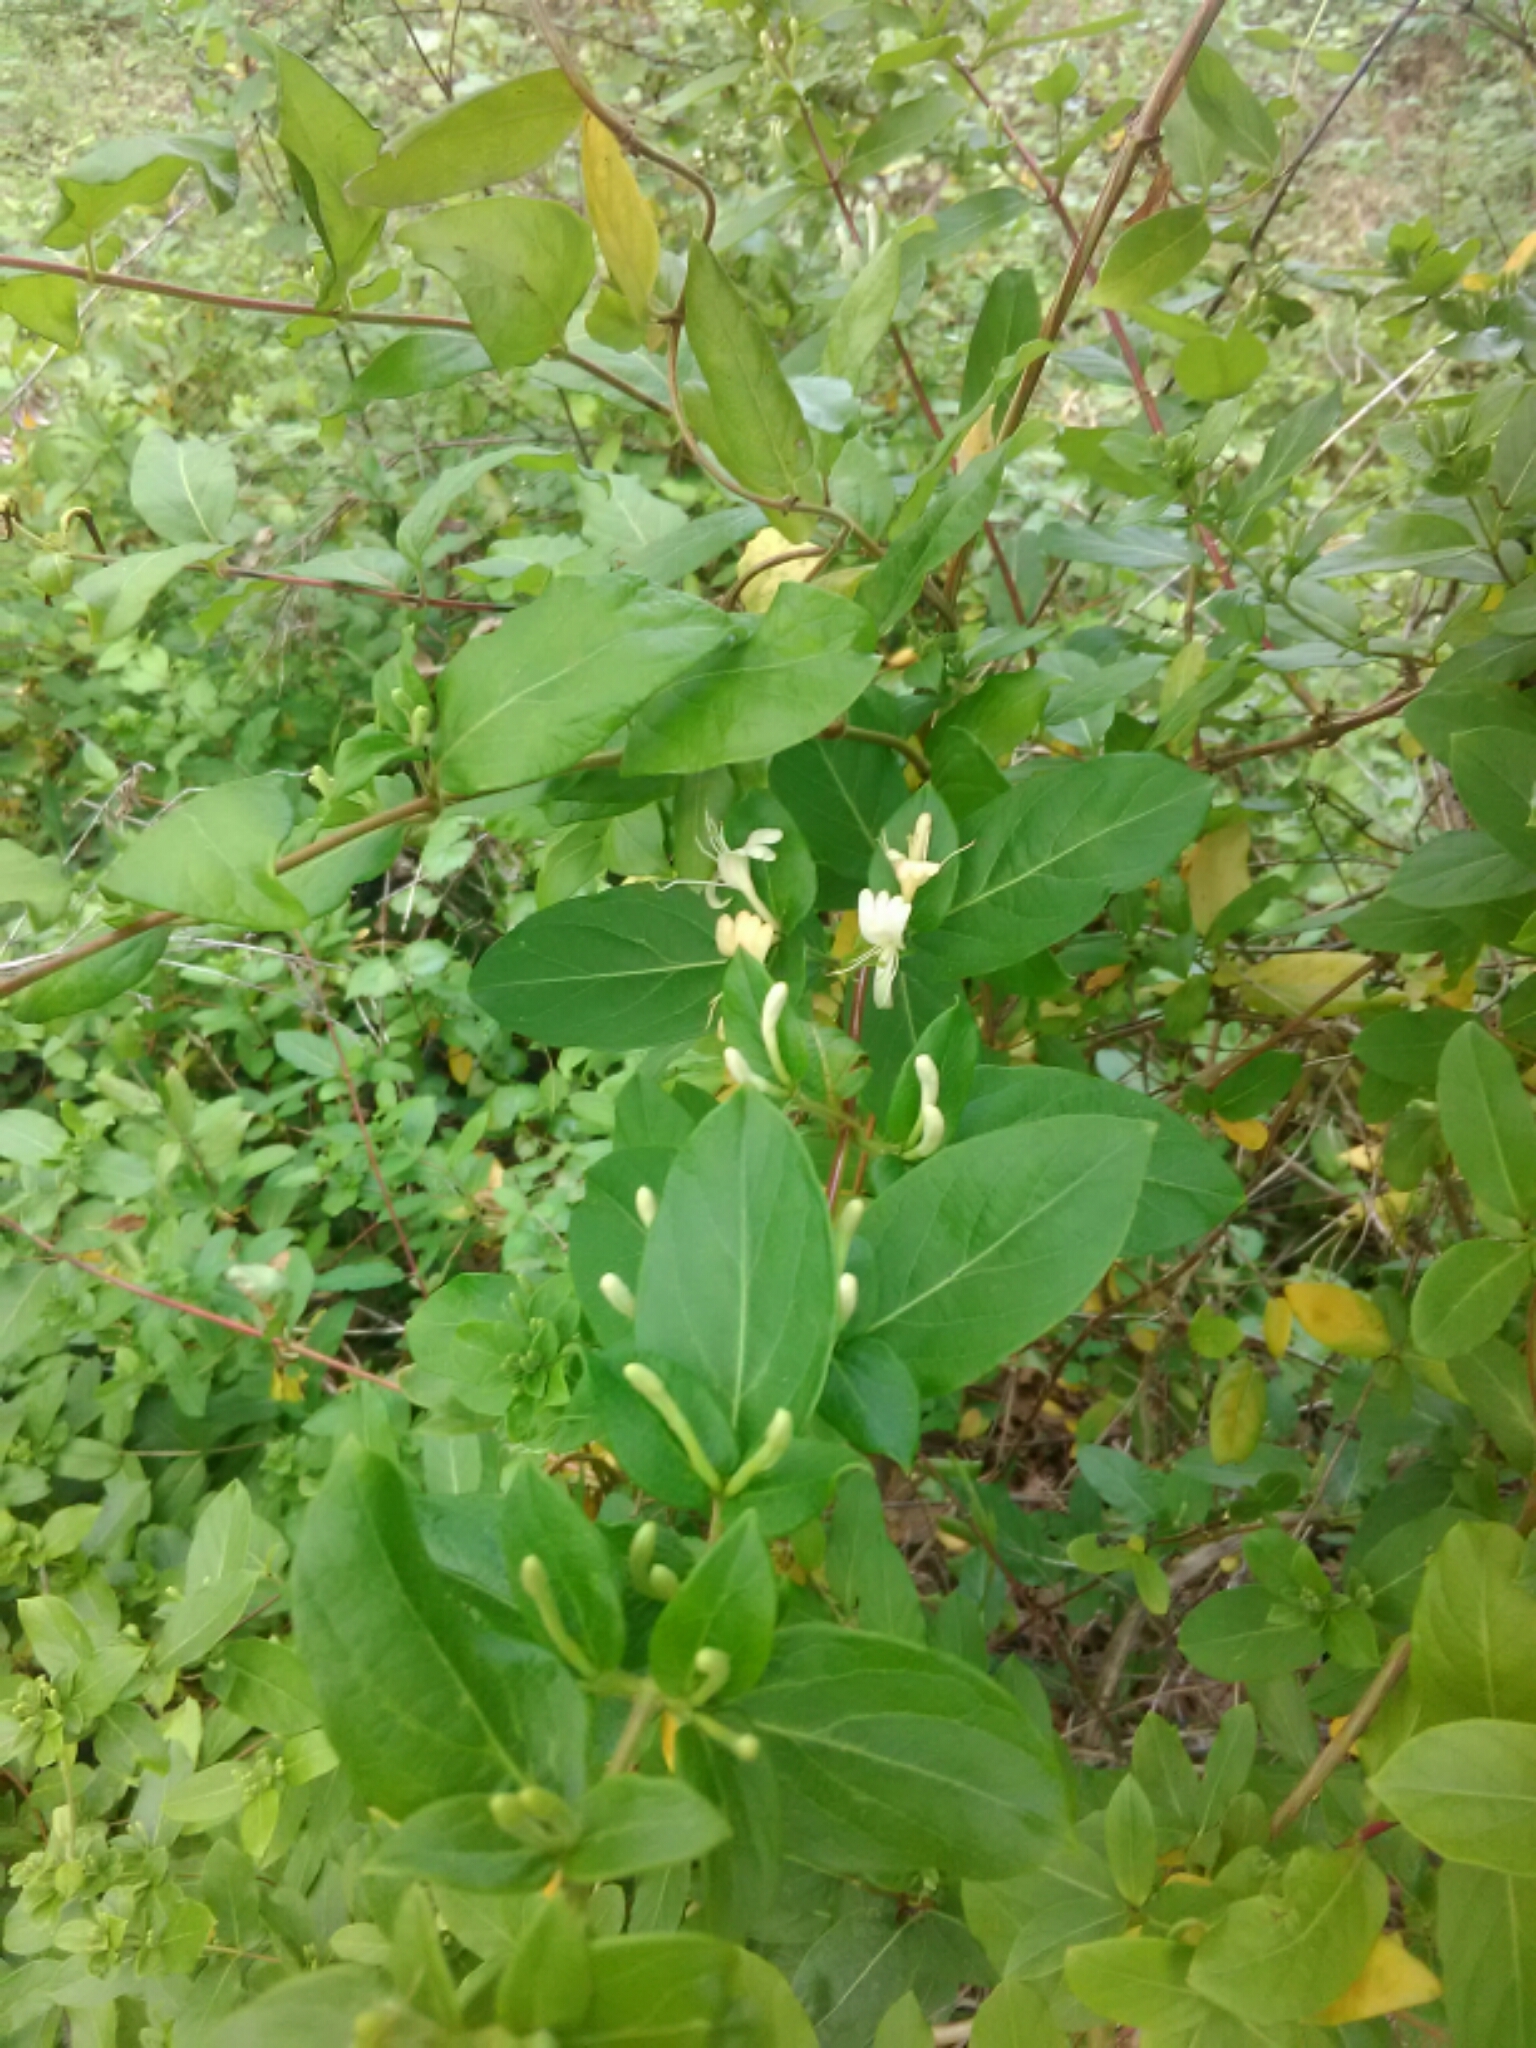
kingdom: Plantae
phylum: Tracheophyta
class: Magnoliopsida
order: Dipsacales
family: Caprifoliaceae
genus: Lonicera
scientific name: Lonicera japonica
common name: Japanese honeysuckle
